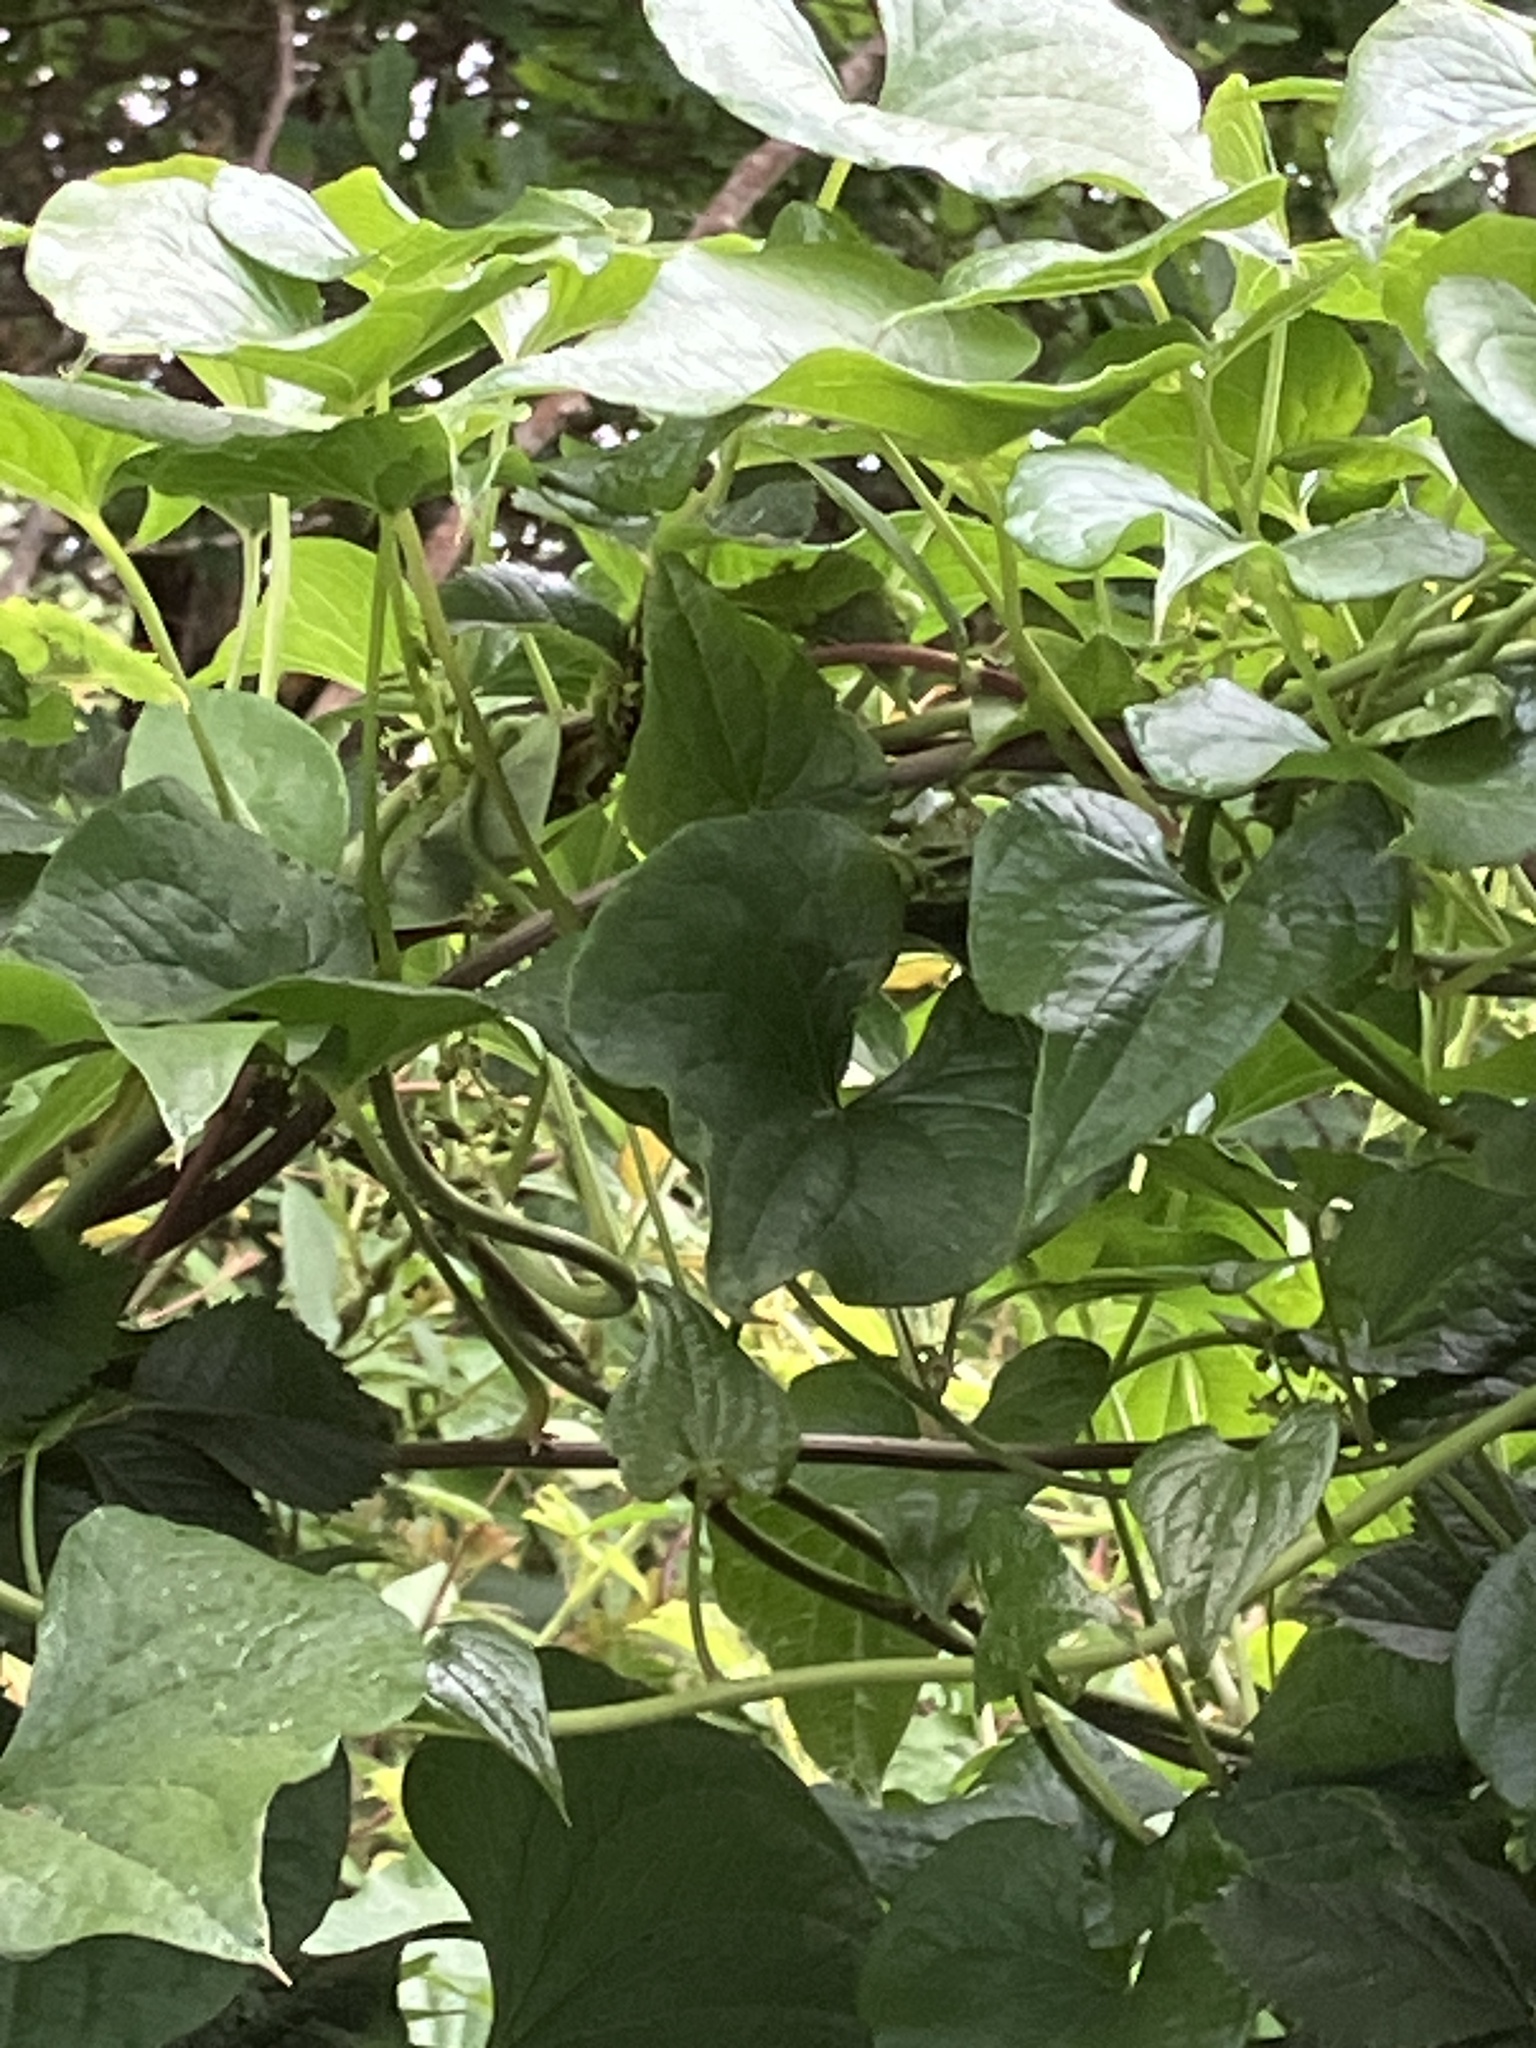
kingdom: Plantae
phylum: Tracheophyta
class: Liliopsida
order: Dioscoreales
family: Dioscoreaceae
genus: Dioscorea
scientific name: Dioscorea communis
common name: Black-bindweed
